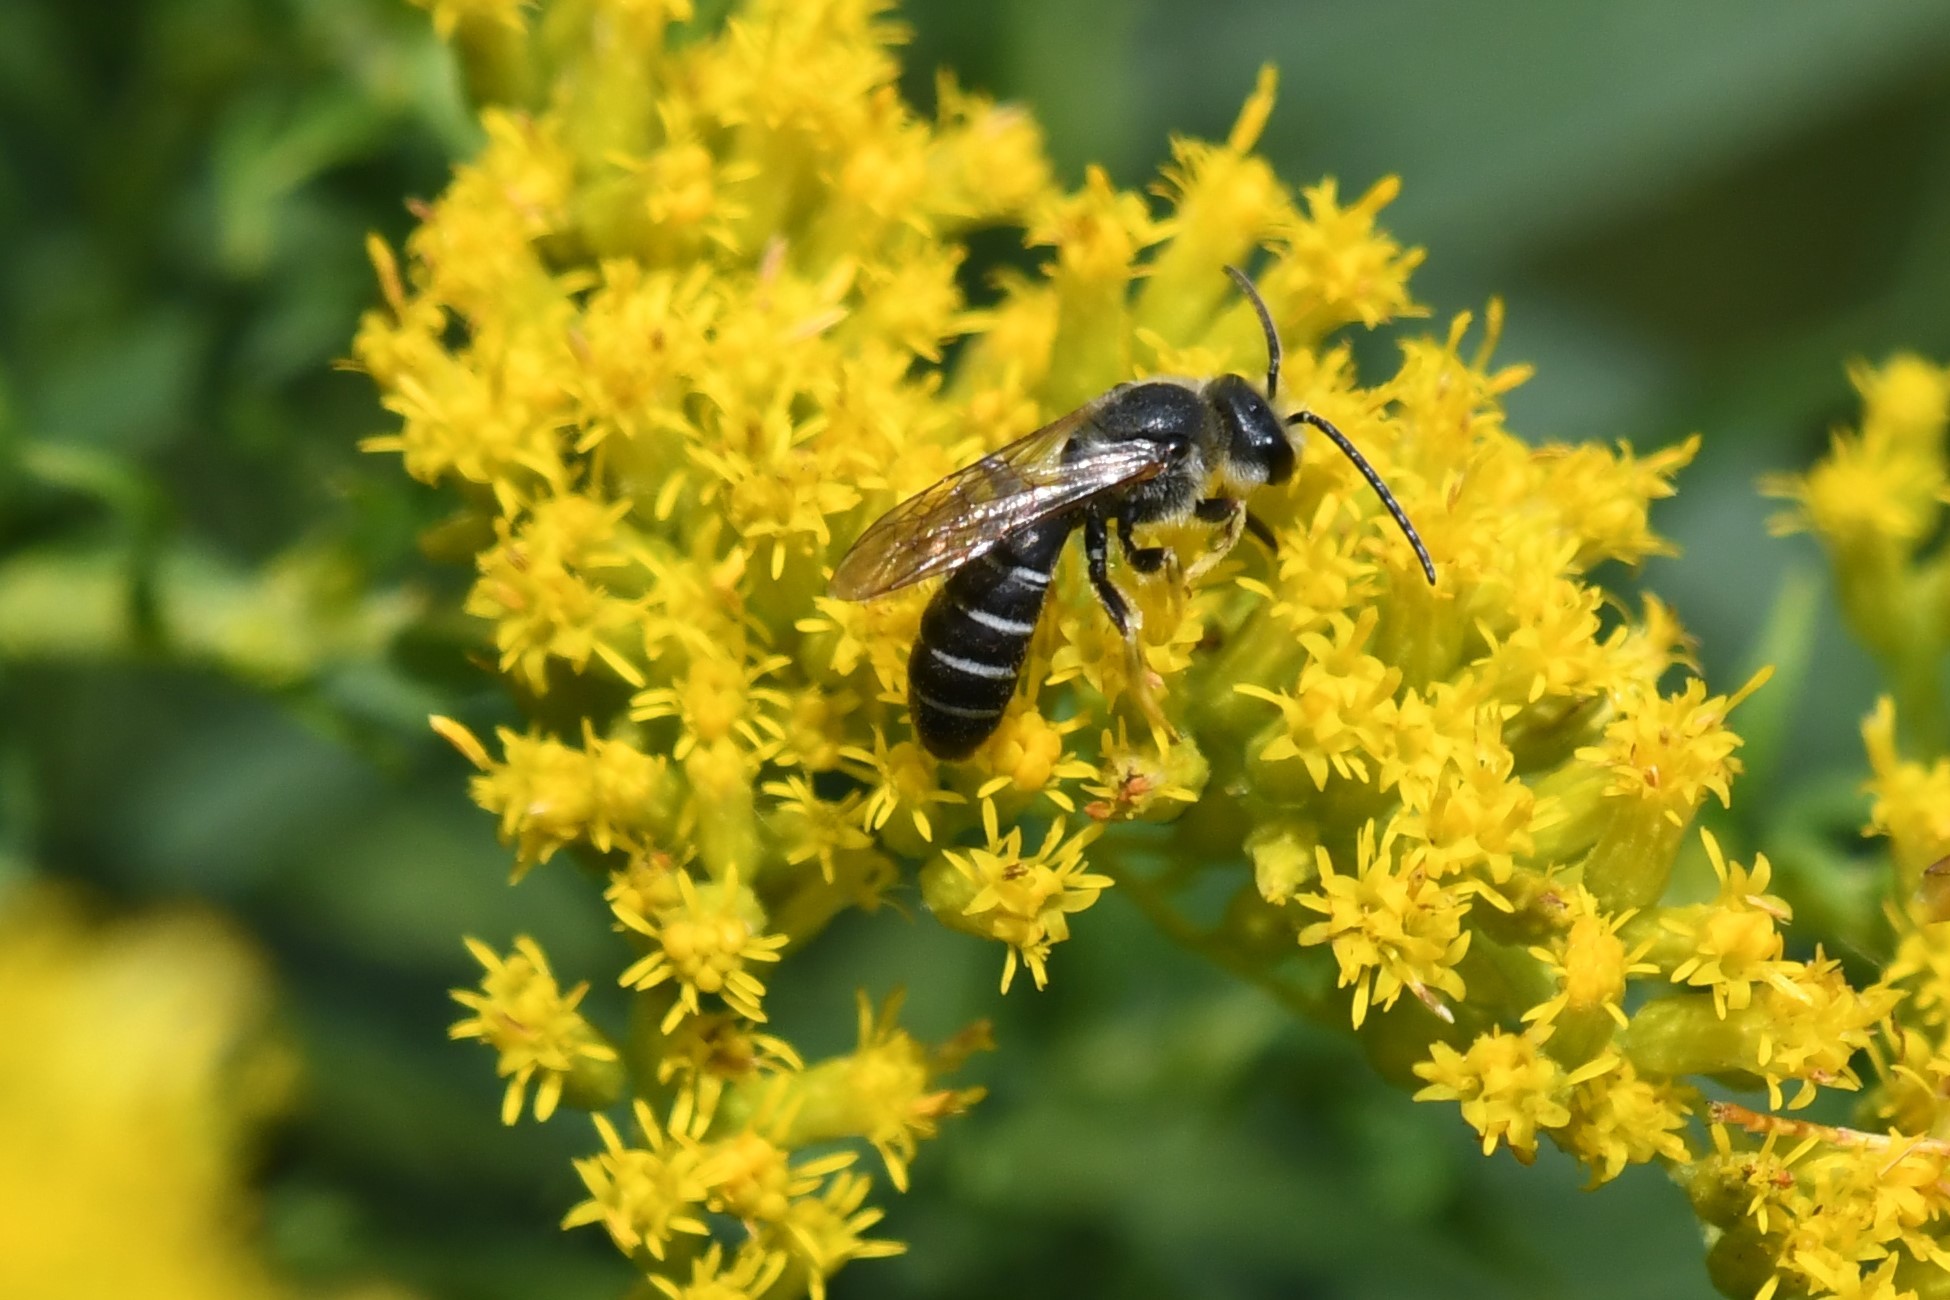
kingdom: Animalia
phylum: Arthropoda
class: Insecta
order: Hymenoptera
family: Halictidae
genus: Halictus
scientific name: Halictus rubicundus
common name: Orange-legged furrow bee
